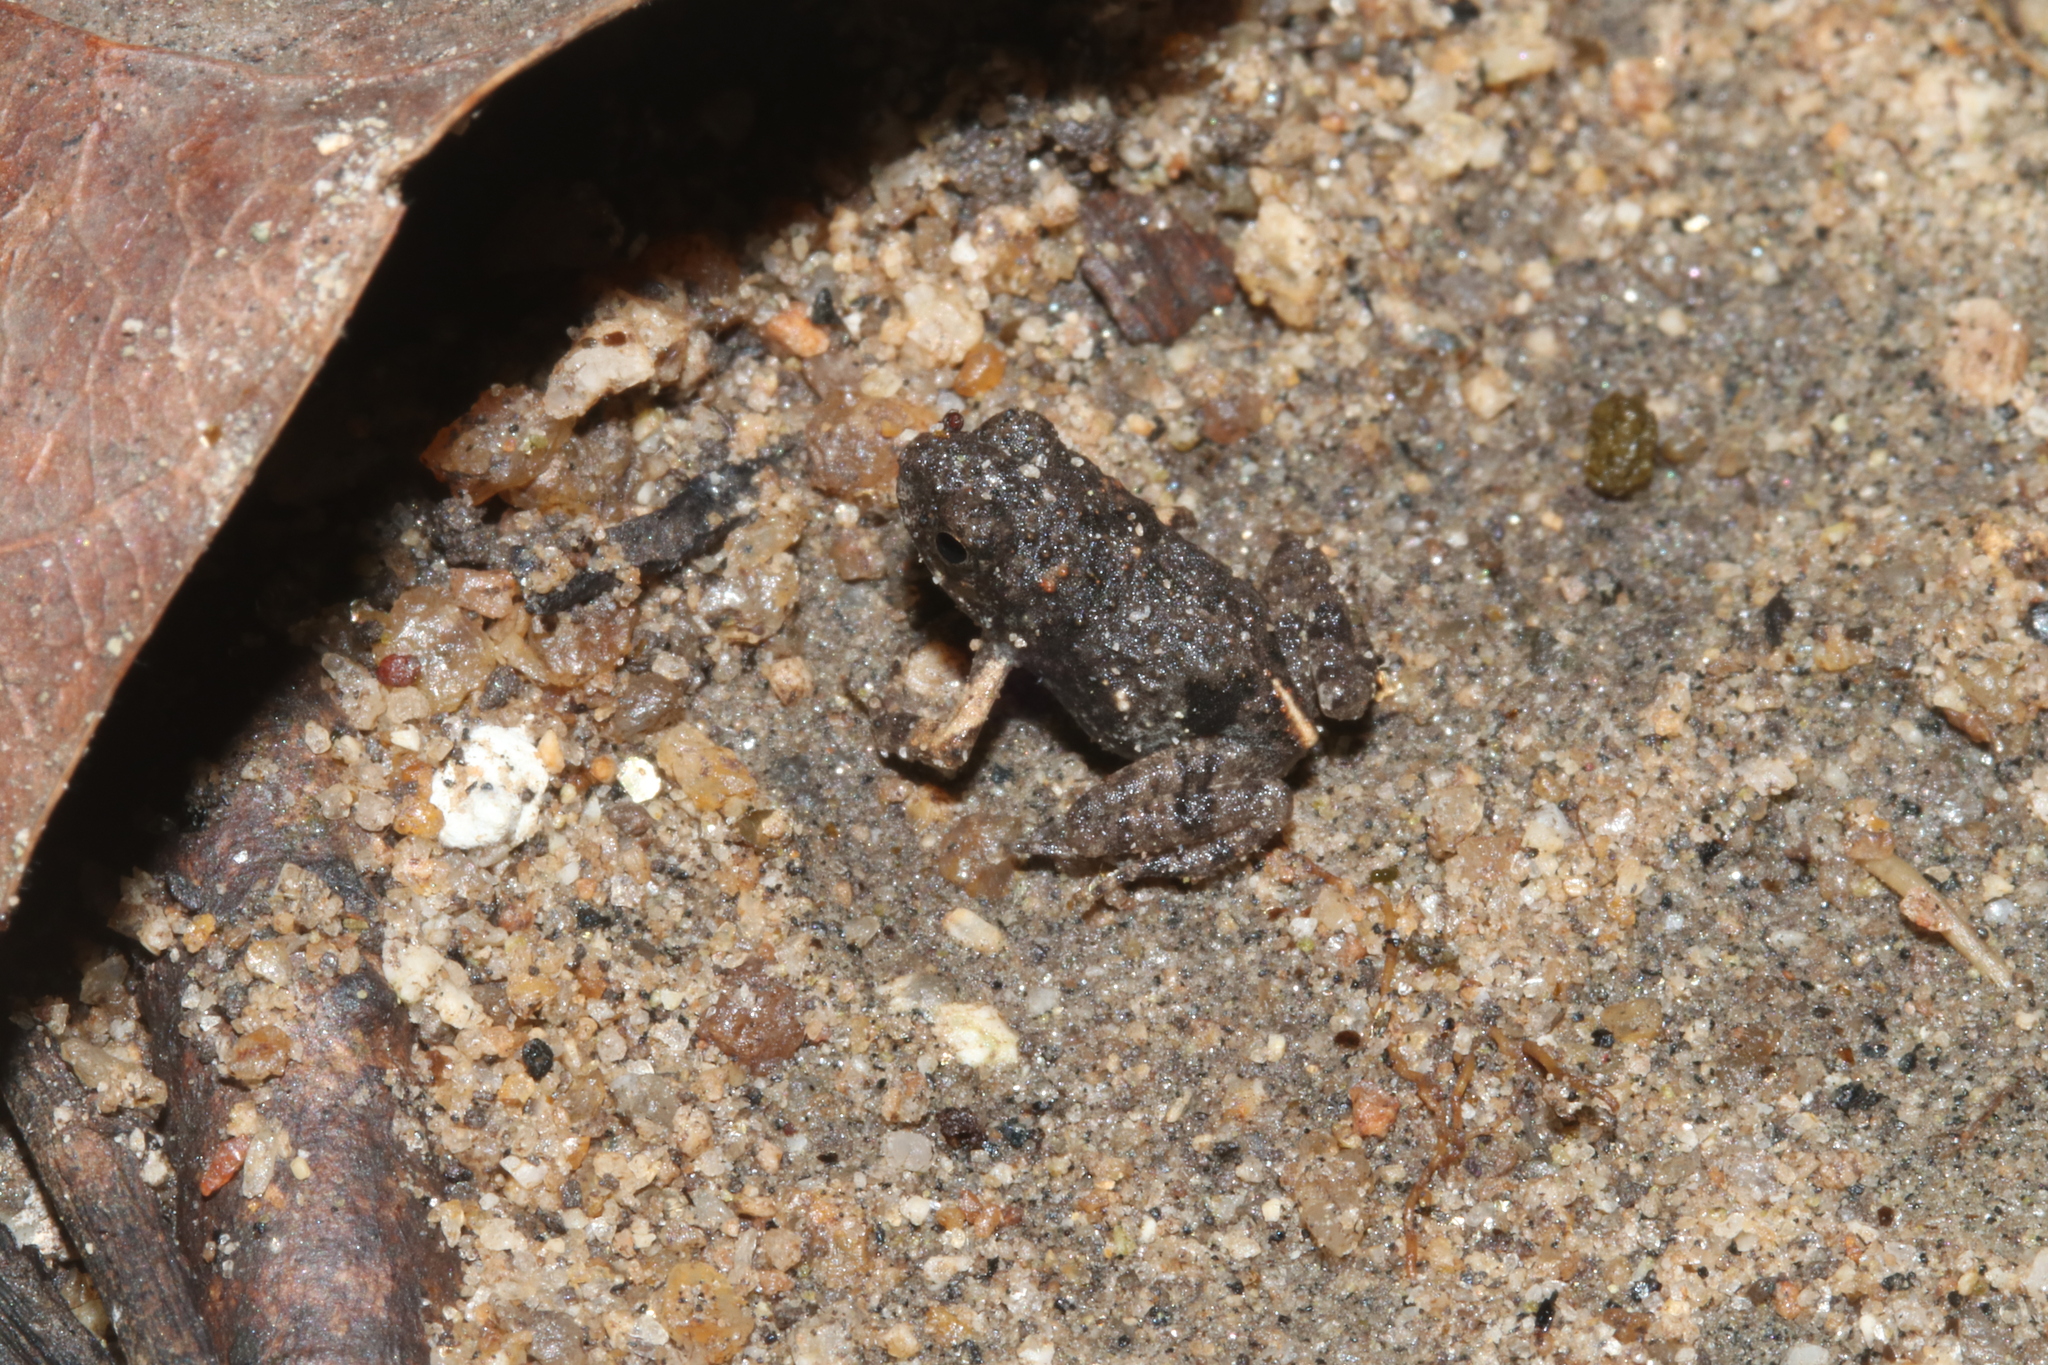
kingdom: Animalia
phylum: Chordata
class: Amphibia
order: Anura
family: Leptodactylidae
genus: Engystomops
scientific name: Engystomops pustulosus
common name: Tungara frog
